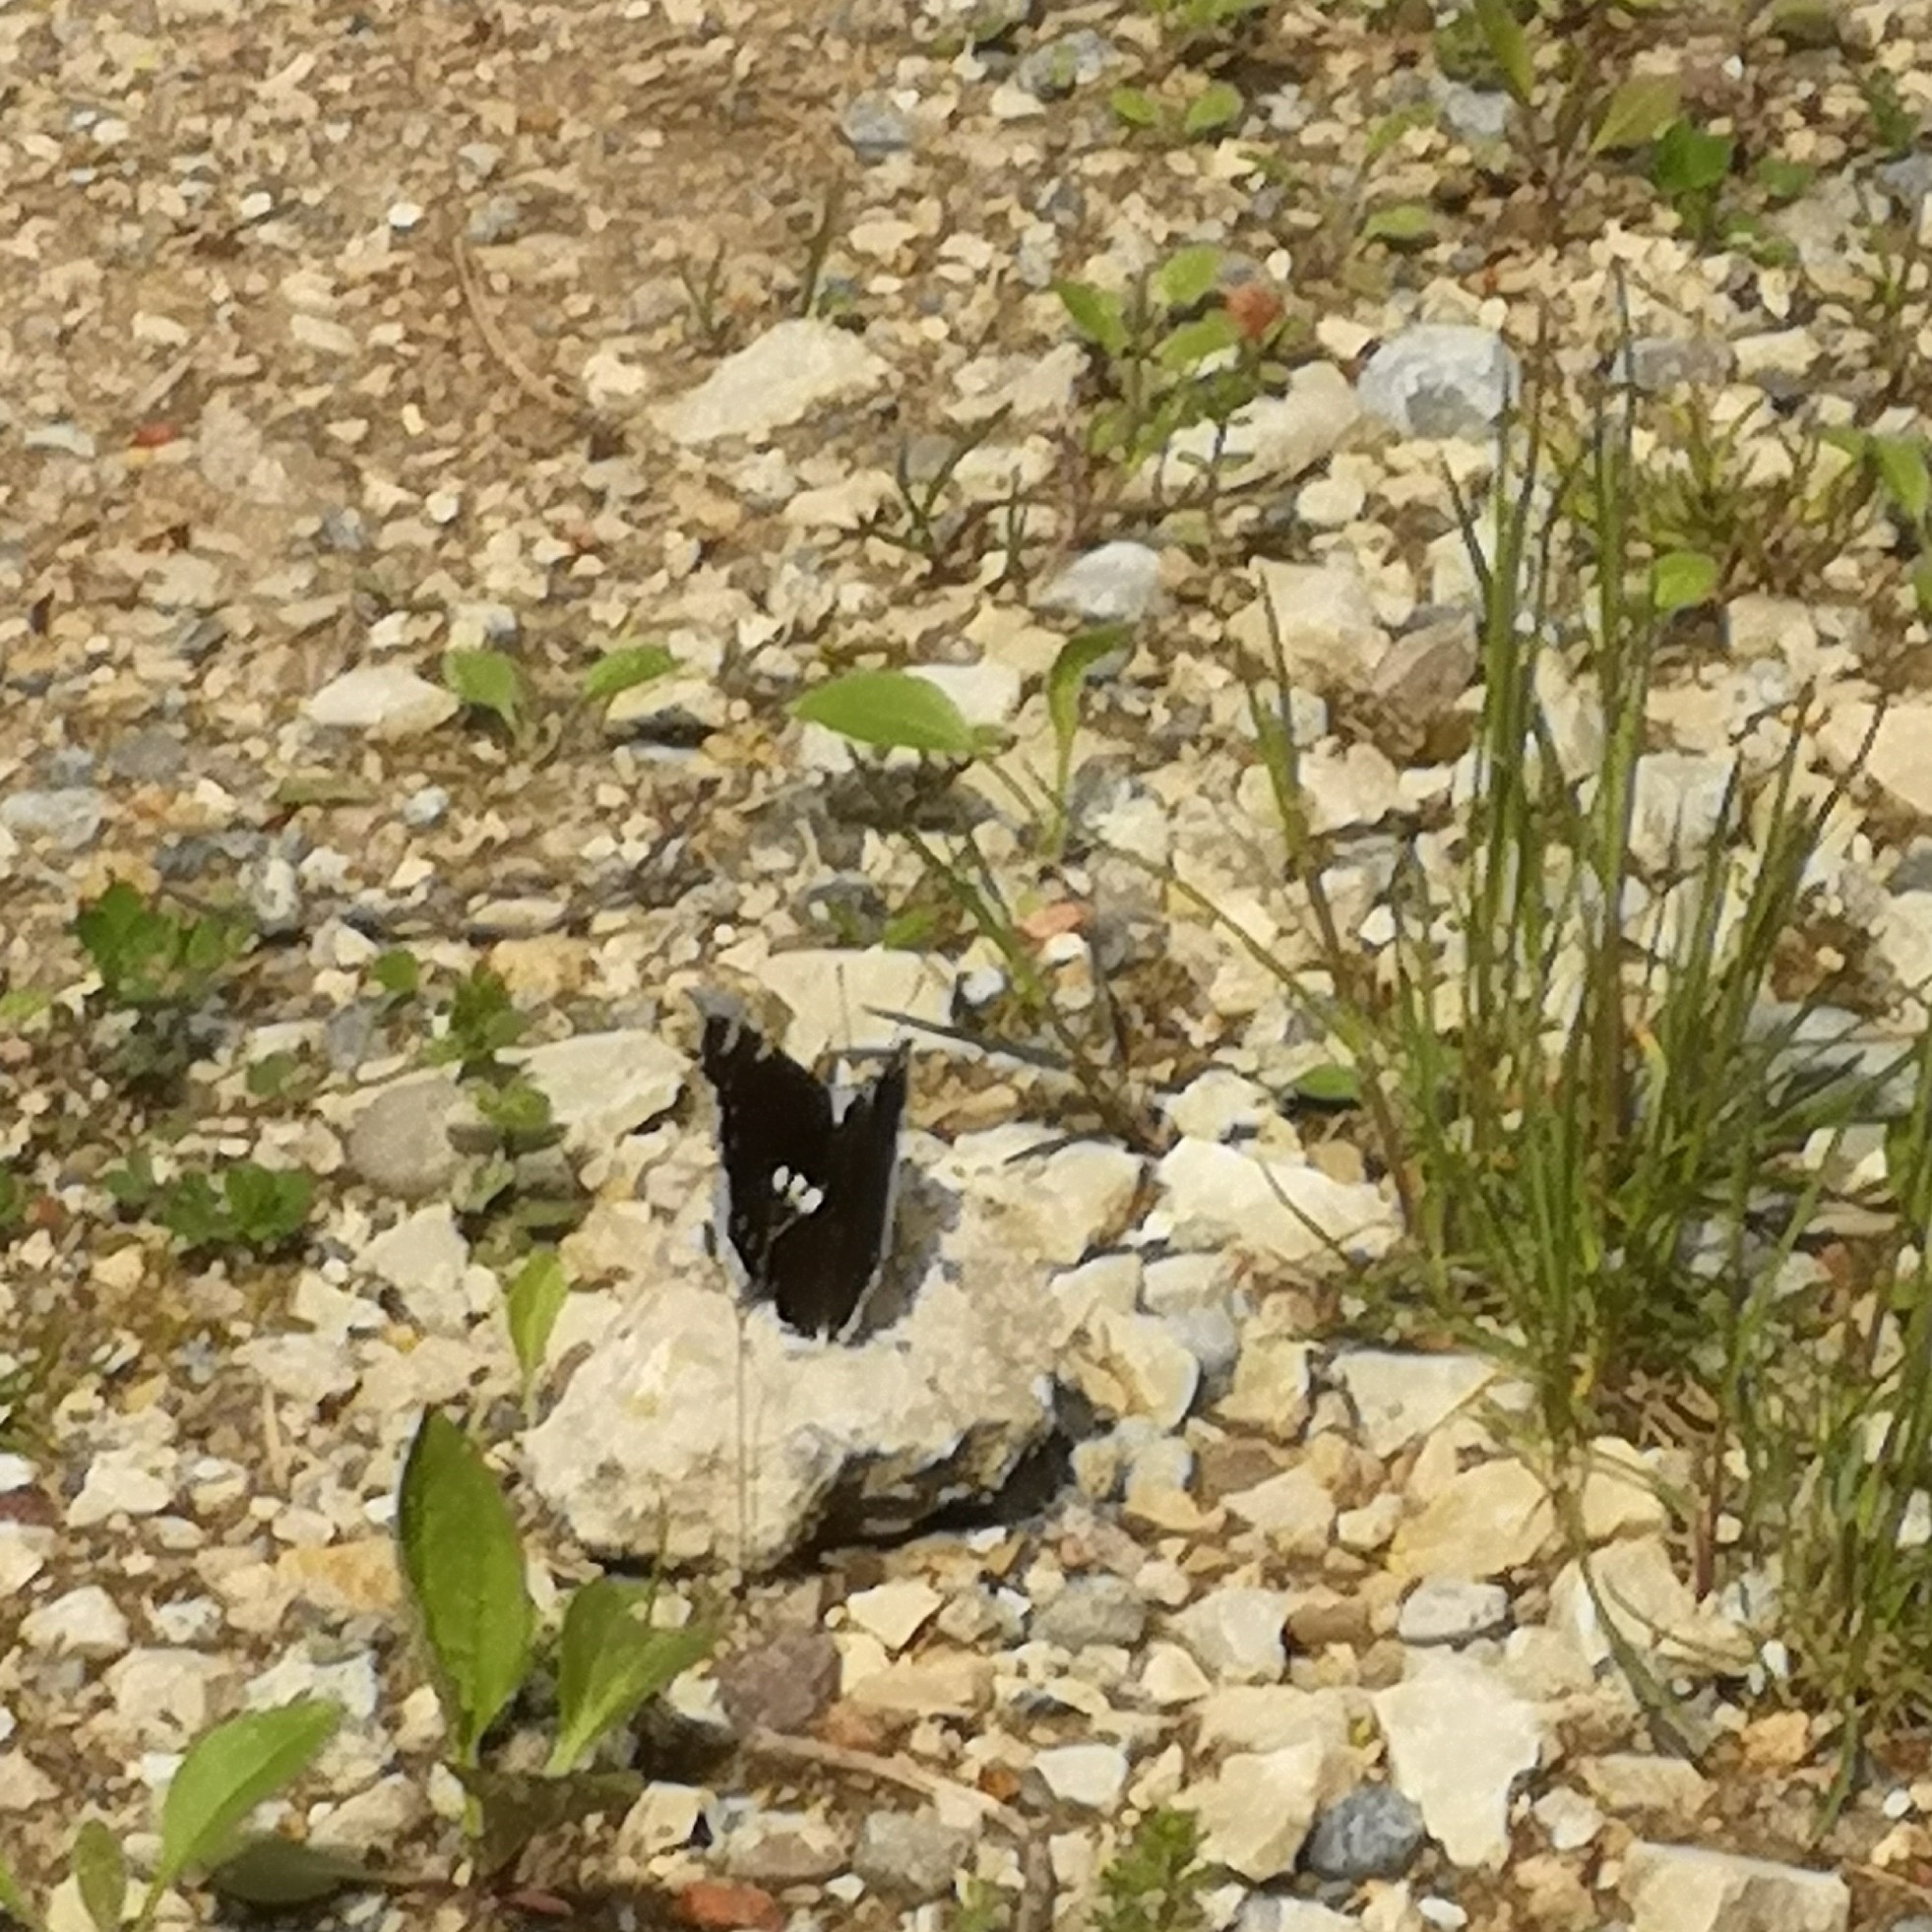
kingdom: Animalia
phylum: Arthropoda
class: Insecta
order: Lepidoptera
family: Nymphalidae
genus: Nymphalis
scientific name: Nymphalis antiopa
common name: Camberwell beauty
